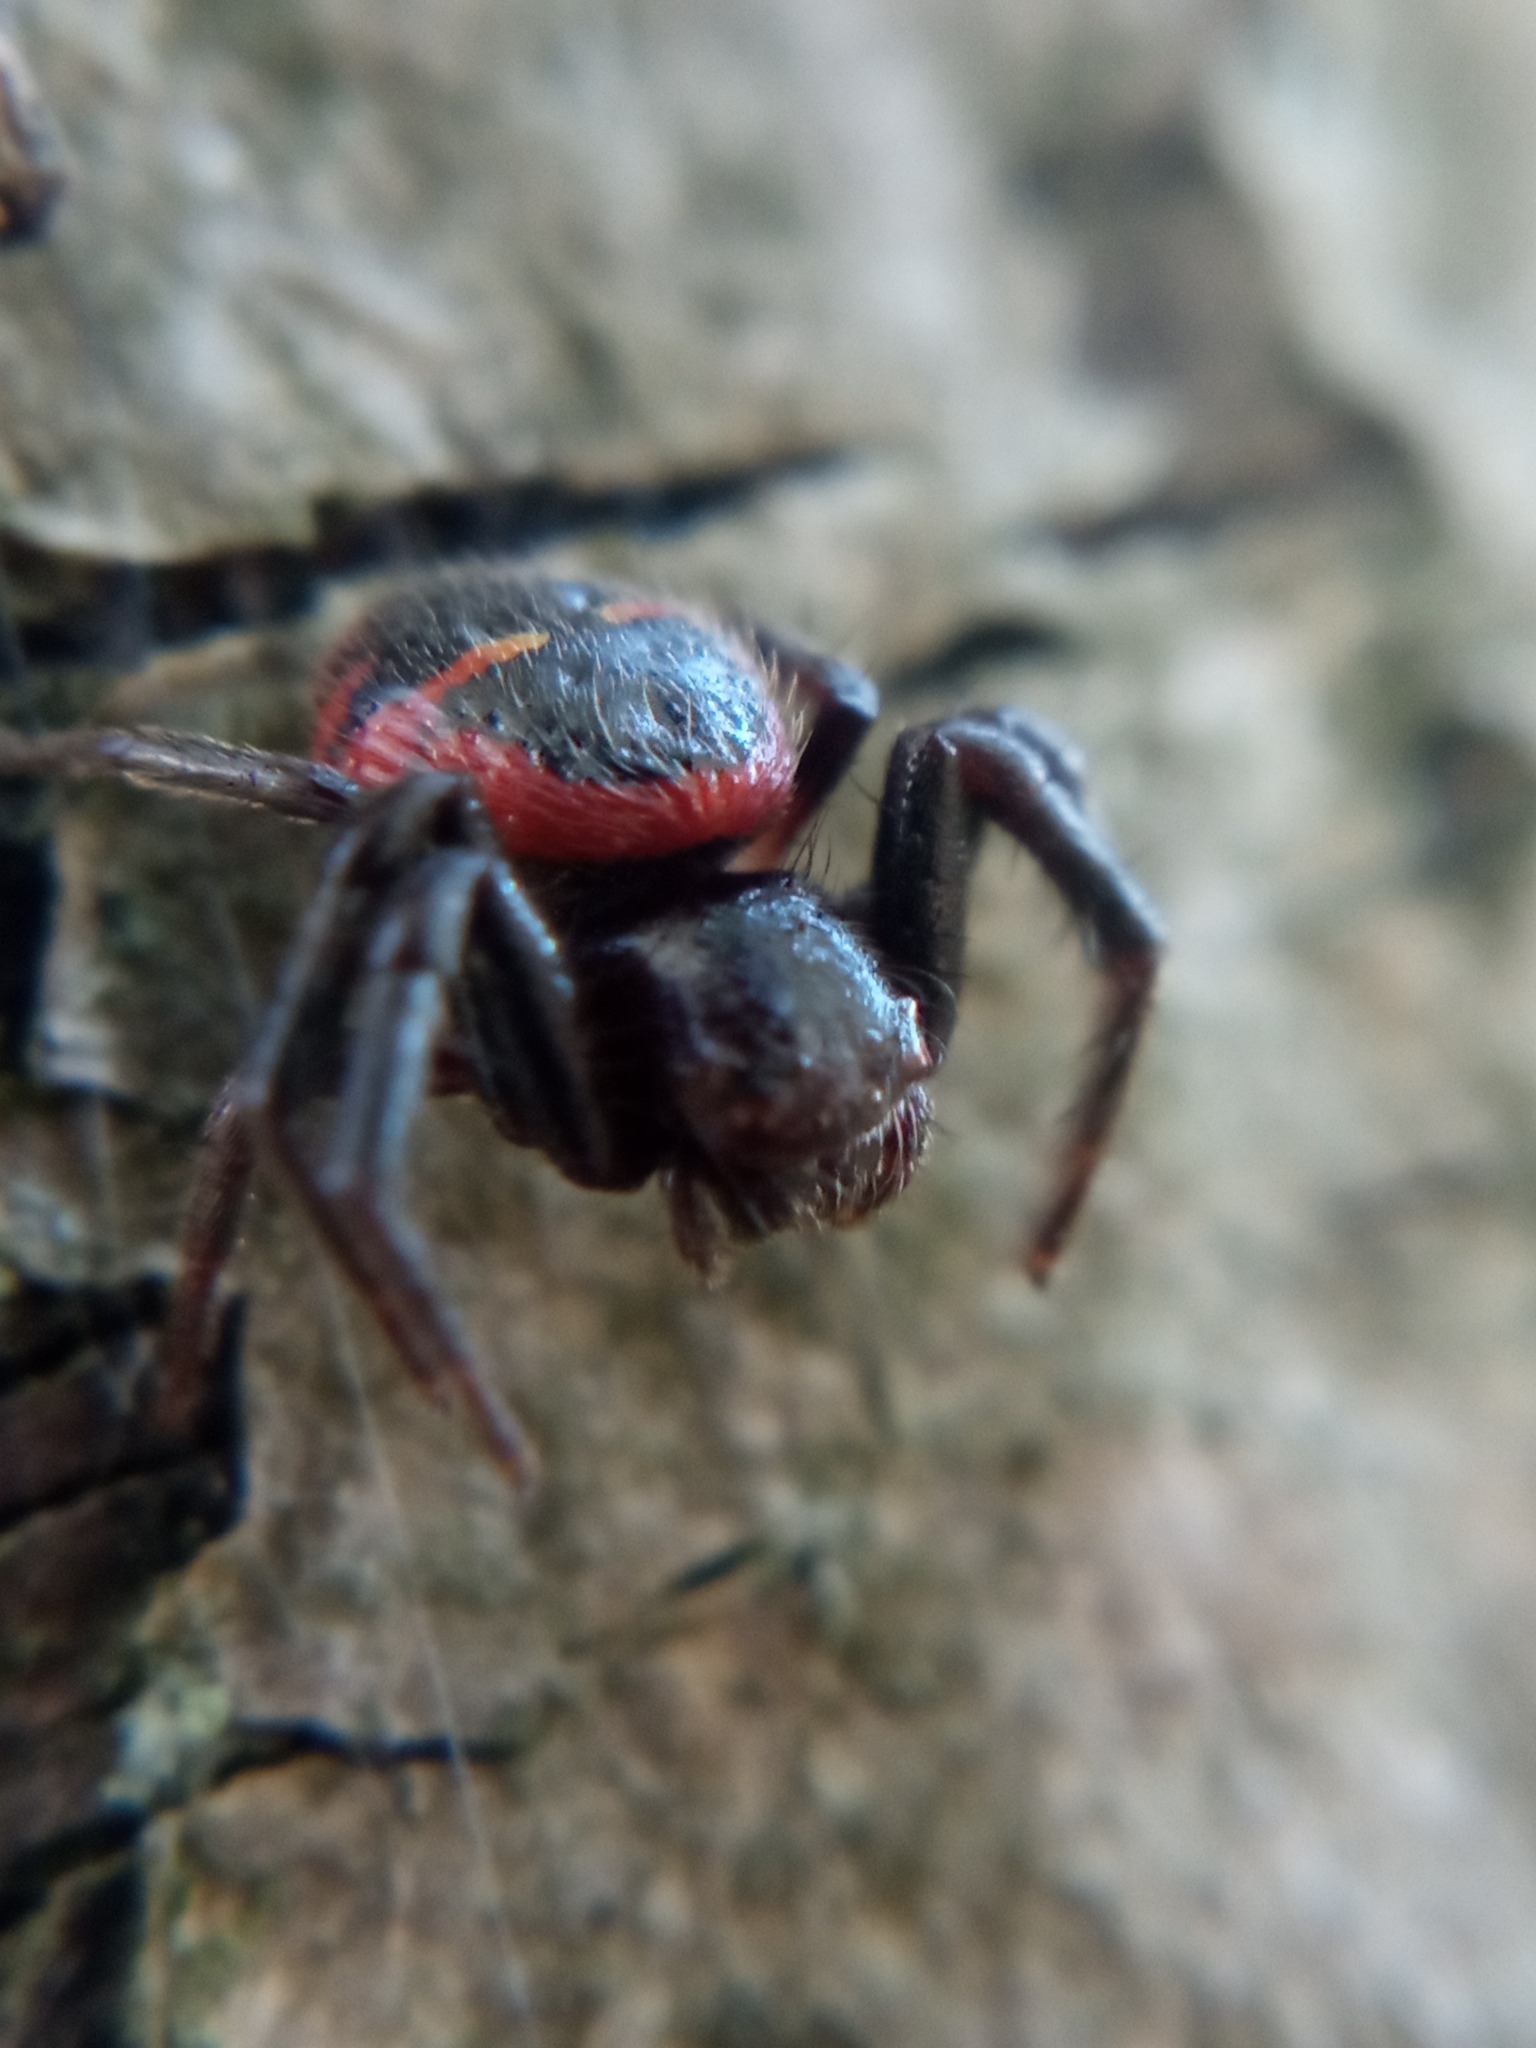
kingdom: Animalia
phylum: Arthropoda
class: Arachnida
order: Araneae
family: Thomisidae
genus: Synema
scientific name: Synema globosum
